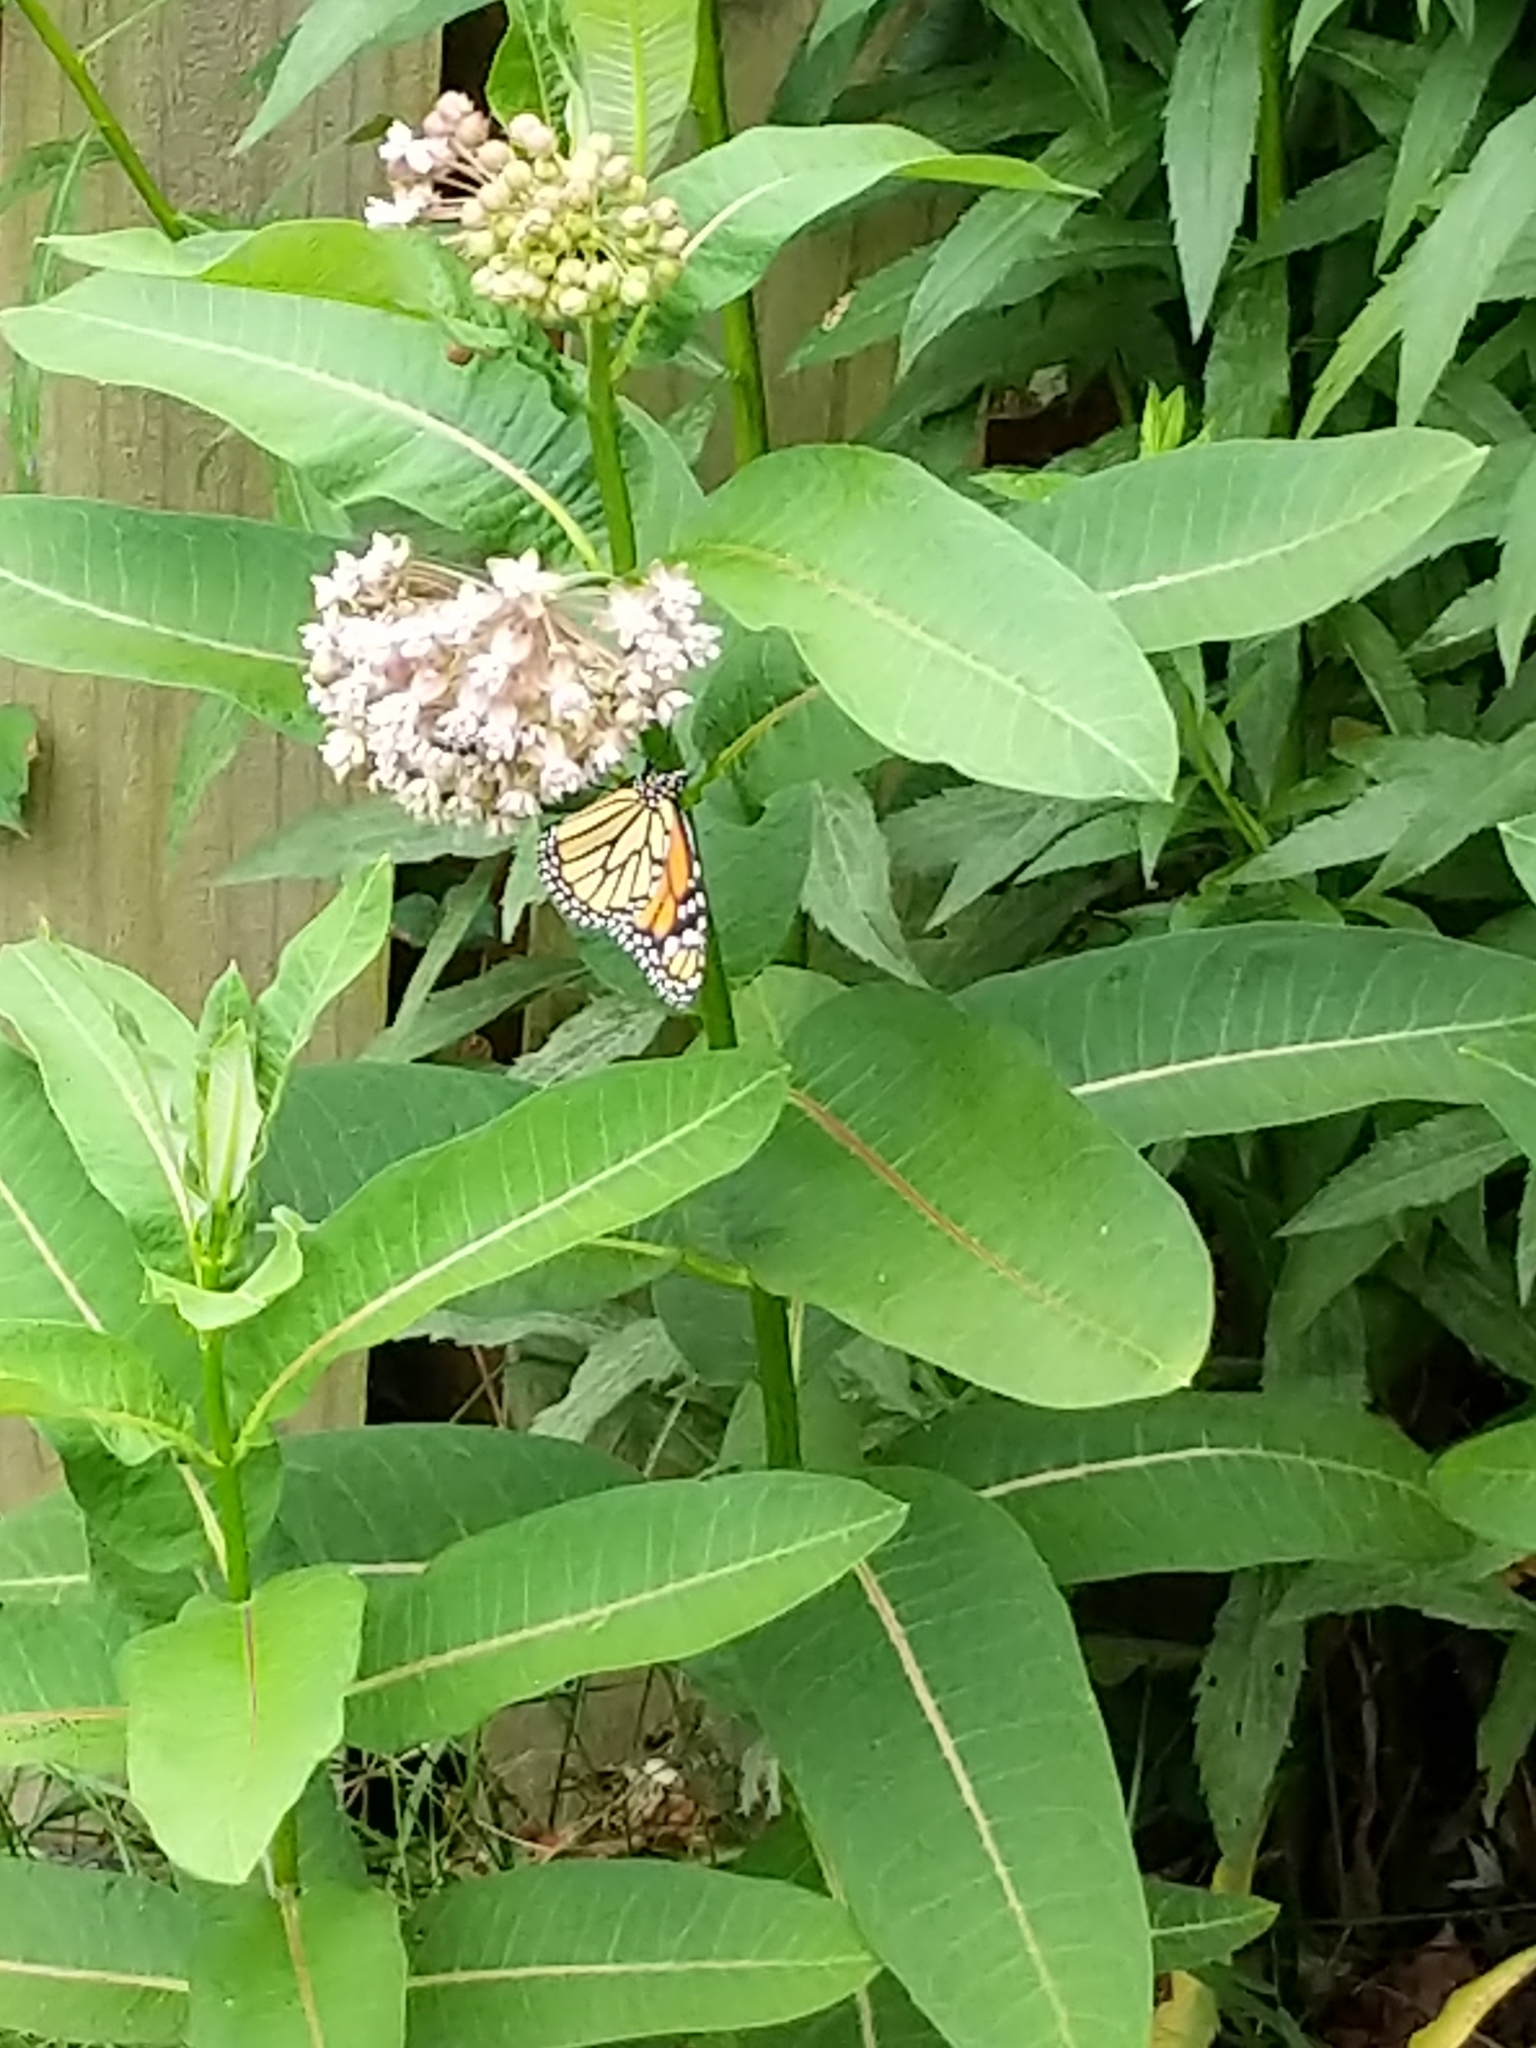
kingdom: Animalia
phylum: Arthropoda
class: Insecta
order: Lepidoptera
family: Nymphalidae
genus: Danaus
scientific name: Danaus plexippus
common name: Monarch
